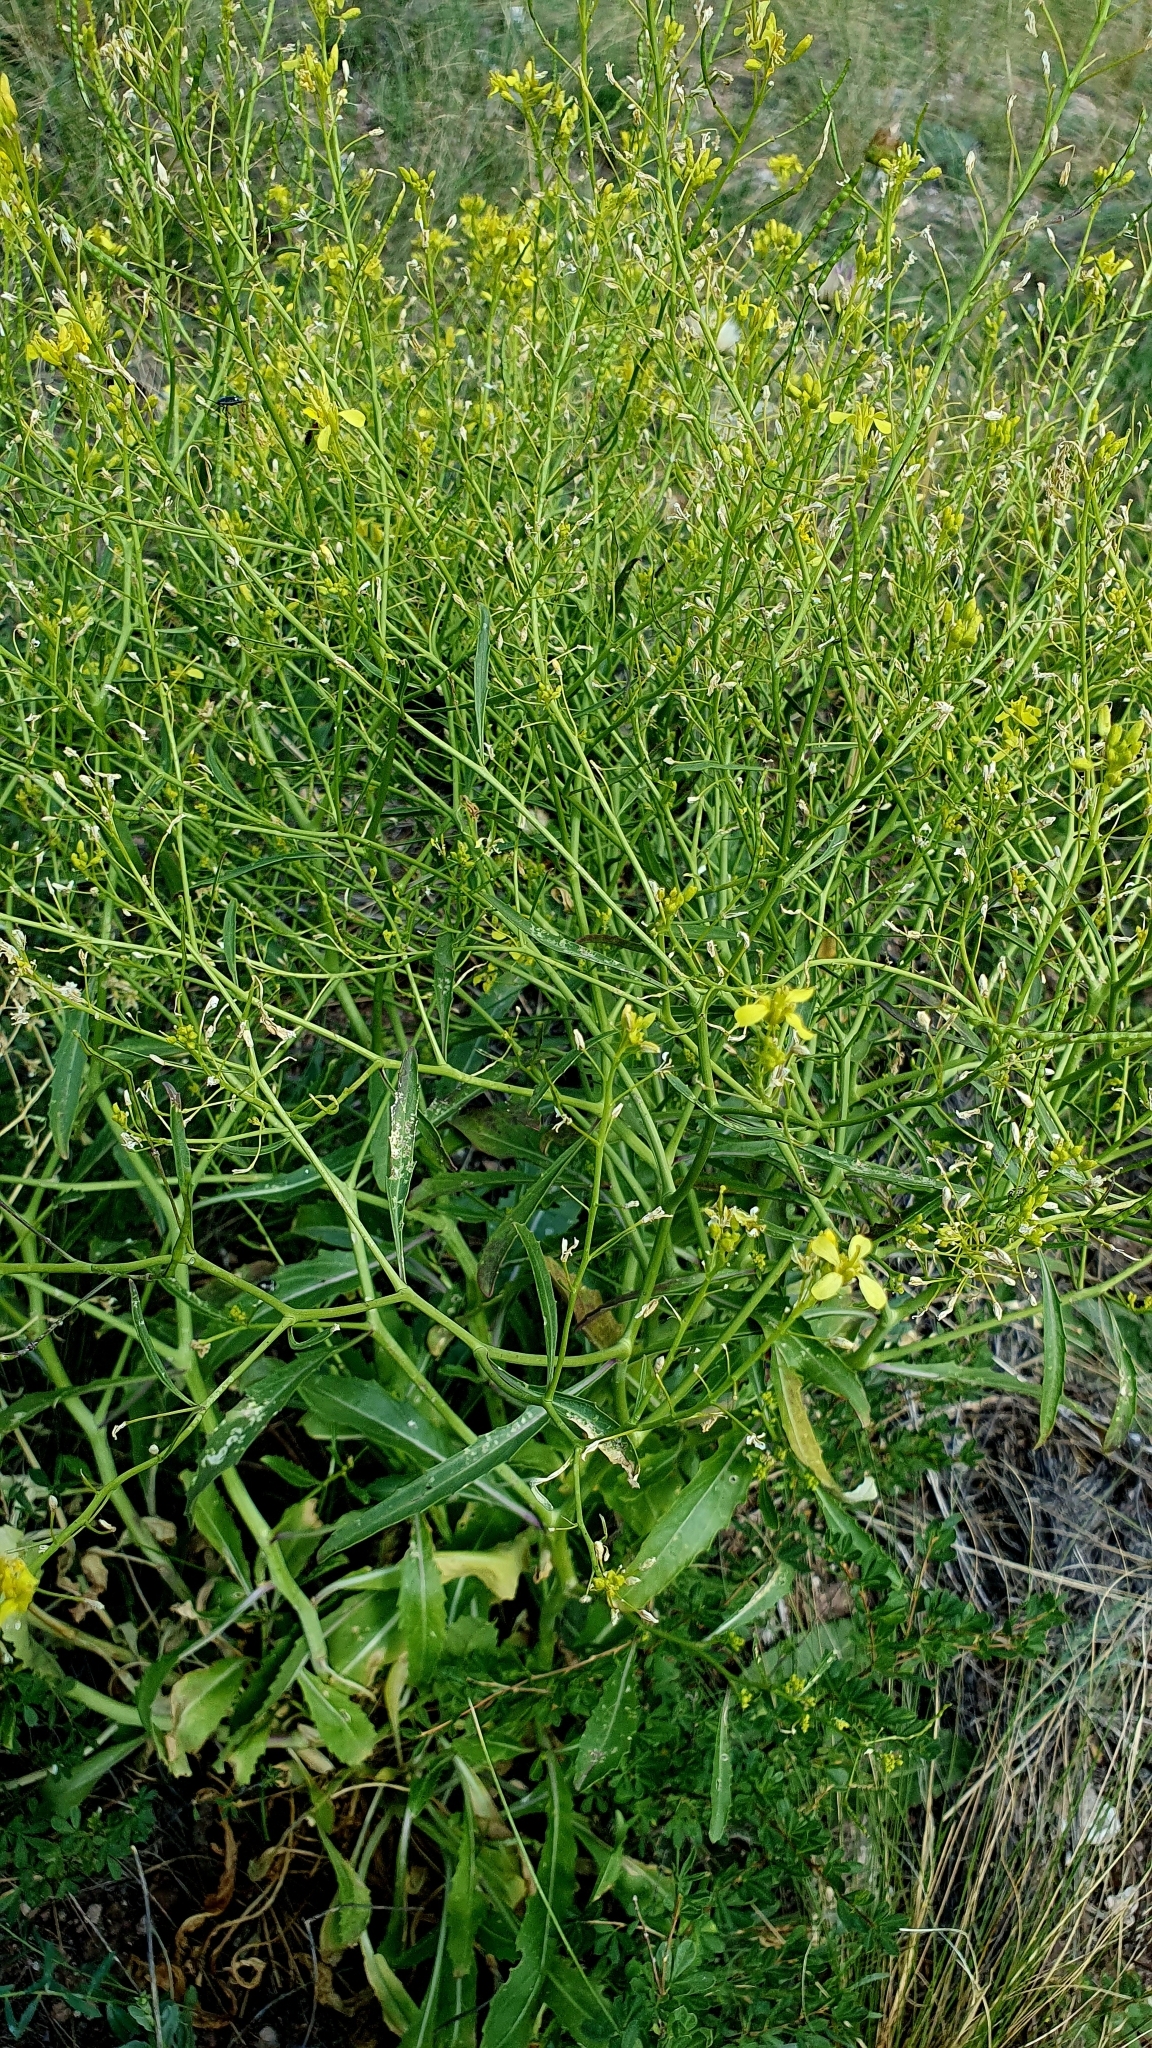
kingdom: Plantae
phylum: Tracheophyta
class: Magnoliopsida
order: Brassicales
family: Brassicaceae
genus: Brassica
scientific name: Brassica elongata
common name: Long-stalked rape
